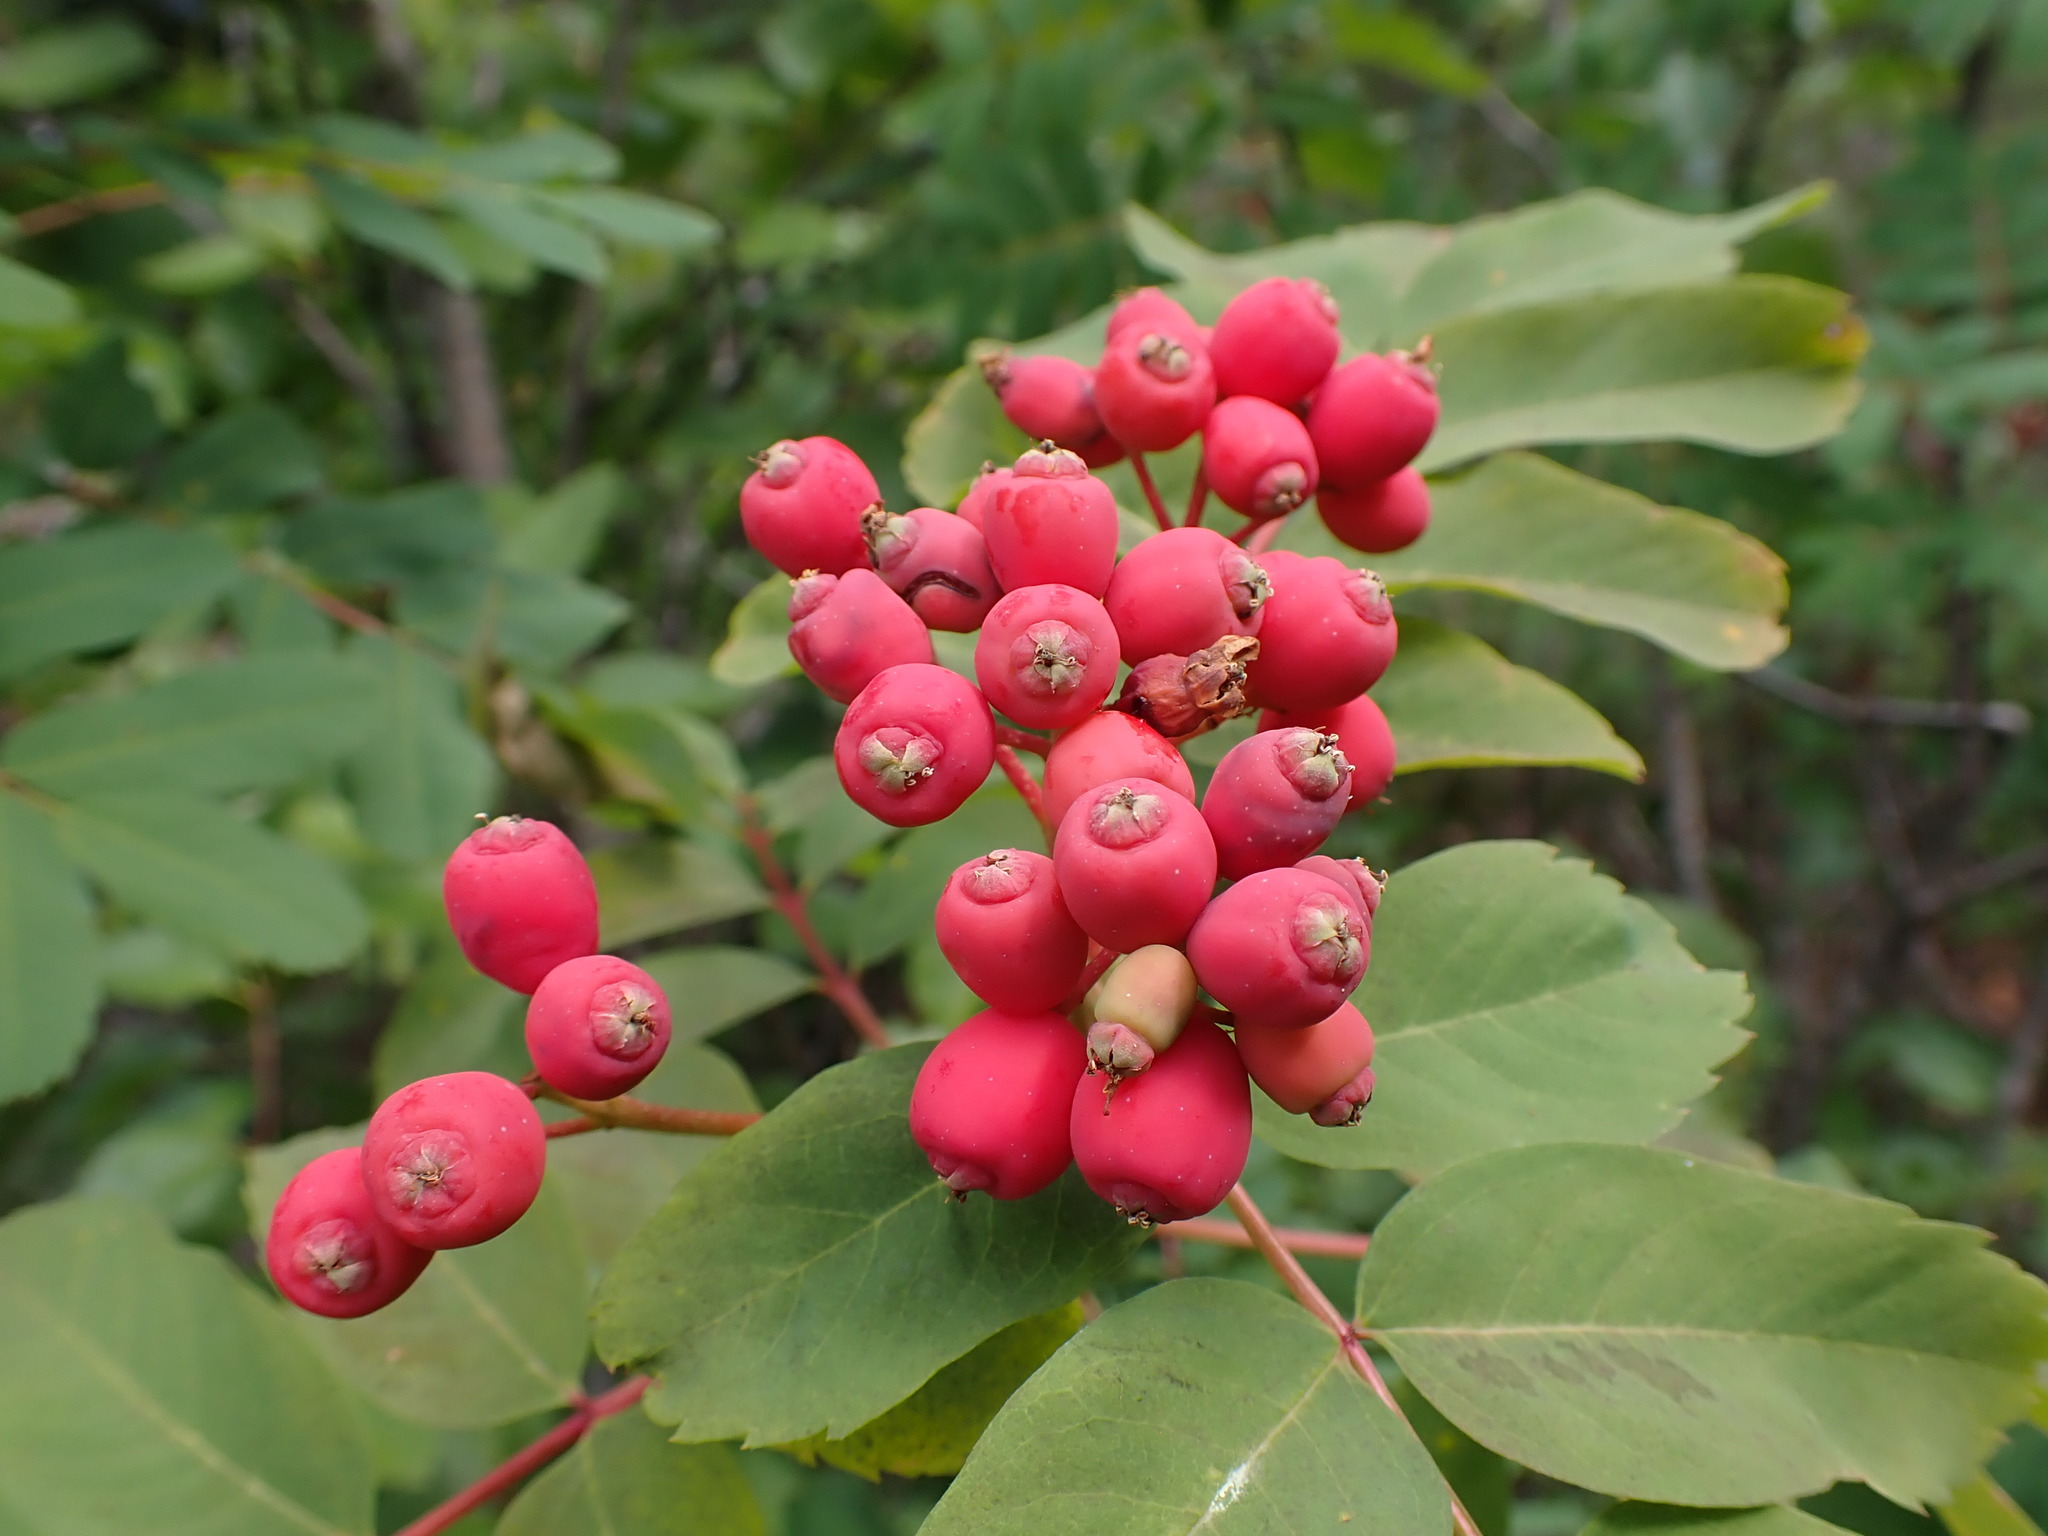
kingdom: Plantae
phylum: Tracheophyta
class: Magnoliopsida
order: Rosales
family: Rosaceae
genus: Sorbus
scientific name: Sorbus sitchensis
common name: Sitka mountain-ash
